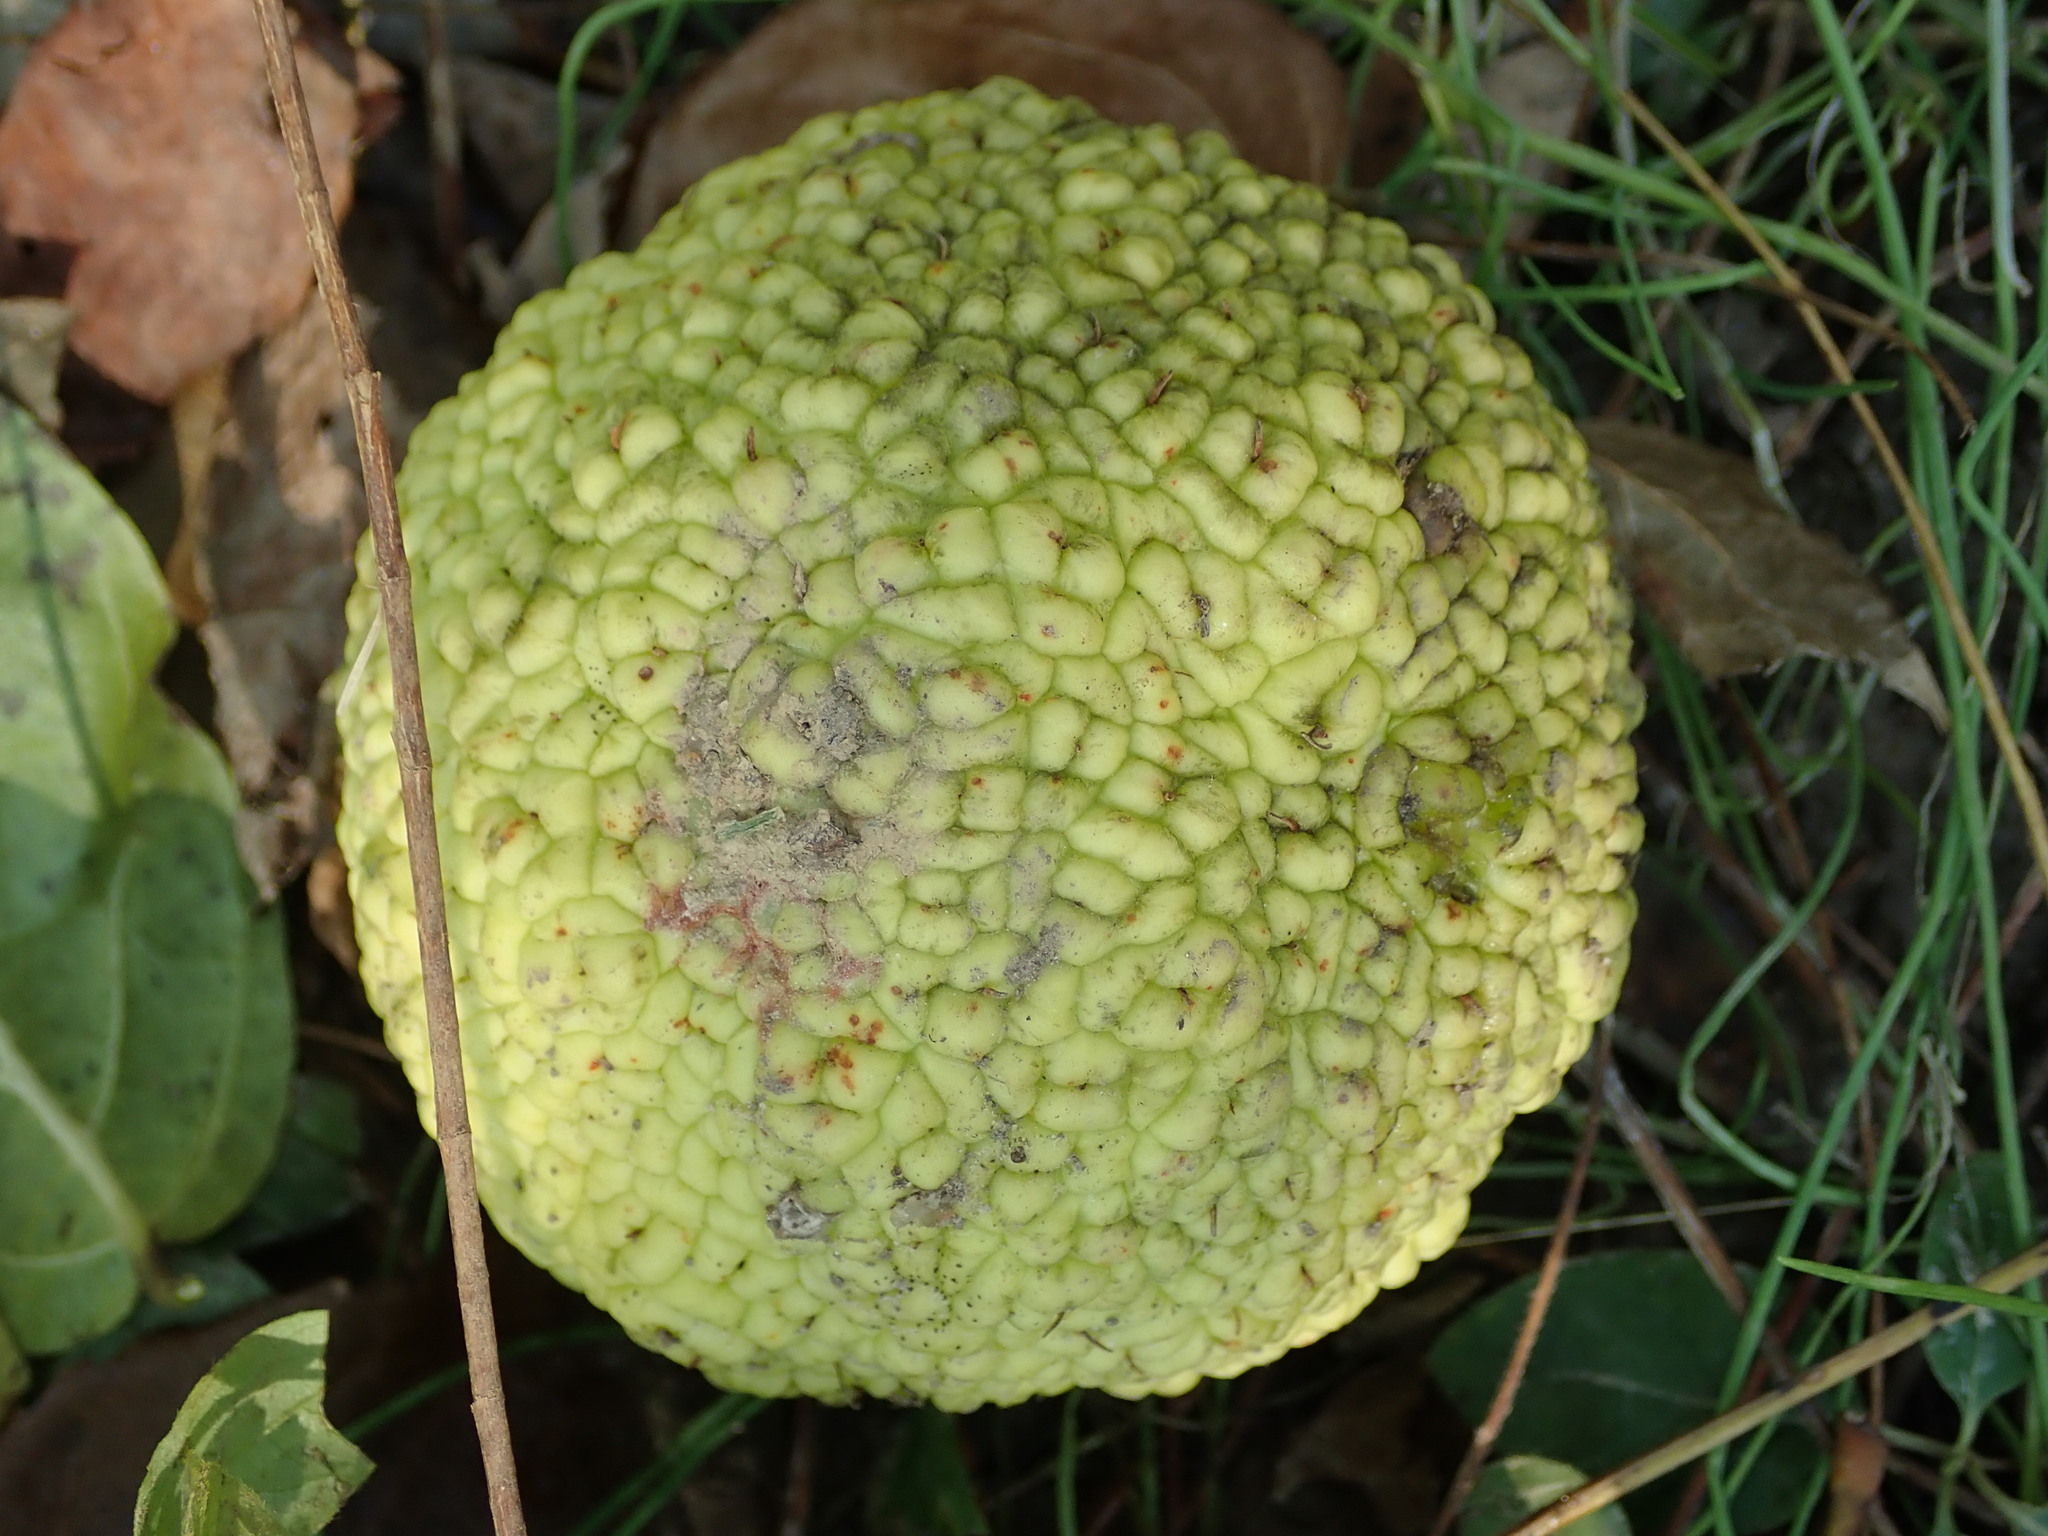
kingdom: Plantae
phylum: Tracheophyta
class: Magnoliopsida
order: Rosales
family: Moraceae
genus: Maclura
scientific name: Maclura pomifera
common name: Osage-orange
